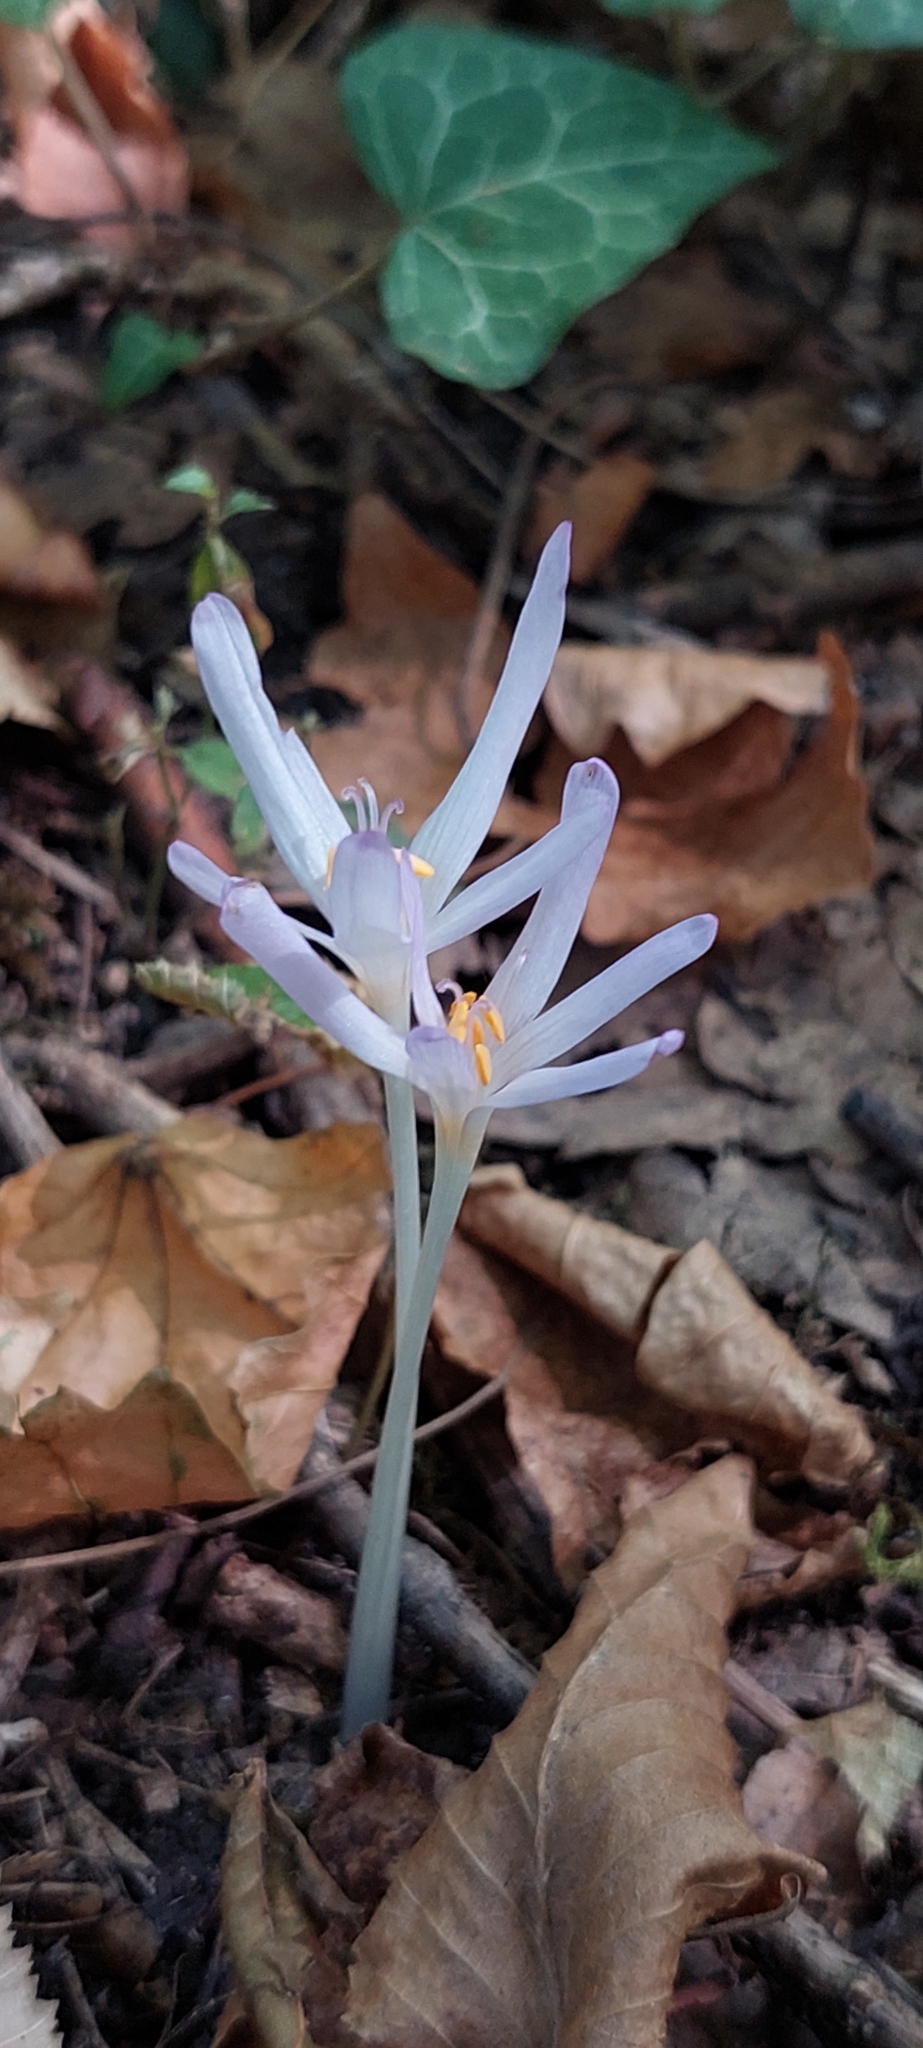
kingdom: Plantae
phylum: Tracheophyta
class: Liliopsida
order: Liliales
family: Colchicaceae
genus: Colchicum
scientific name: Colchicum umbrosum
